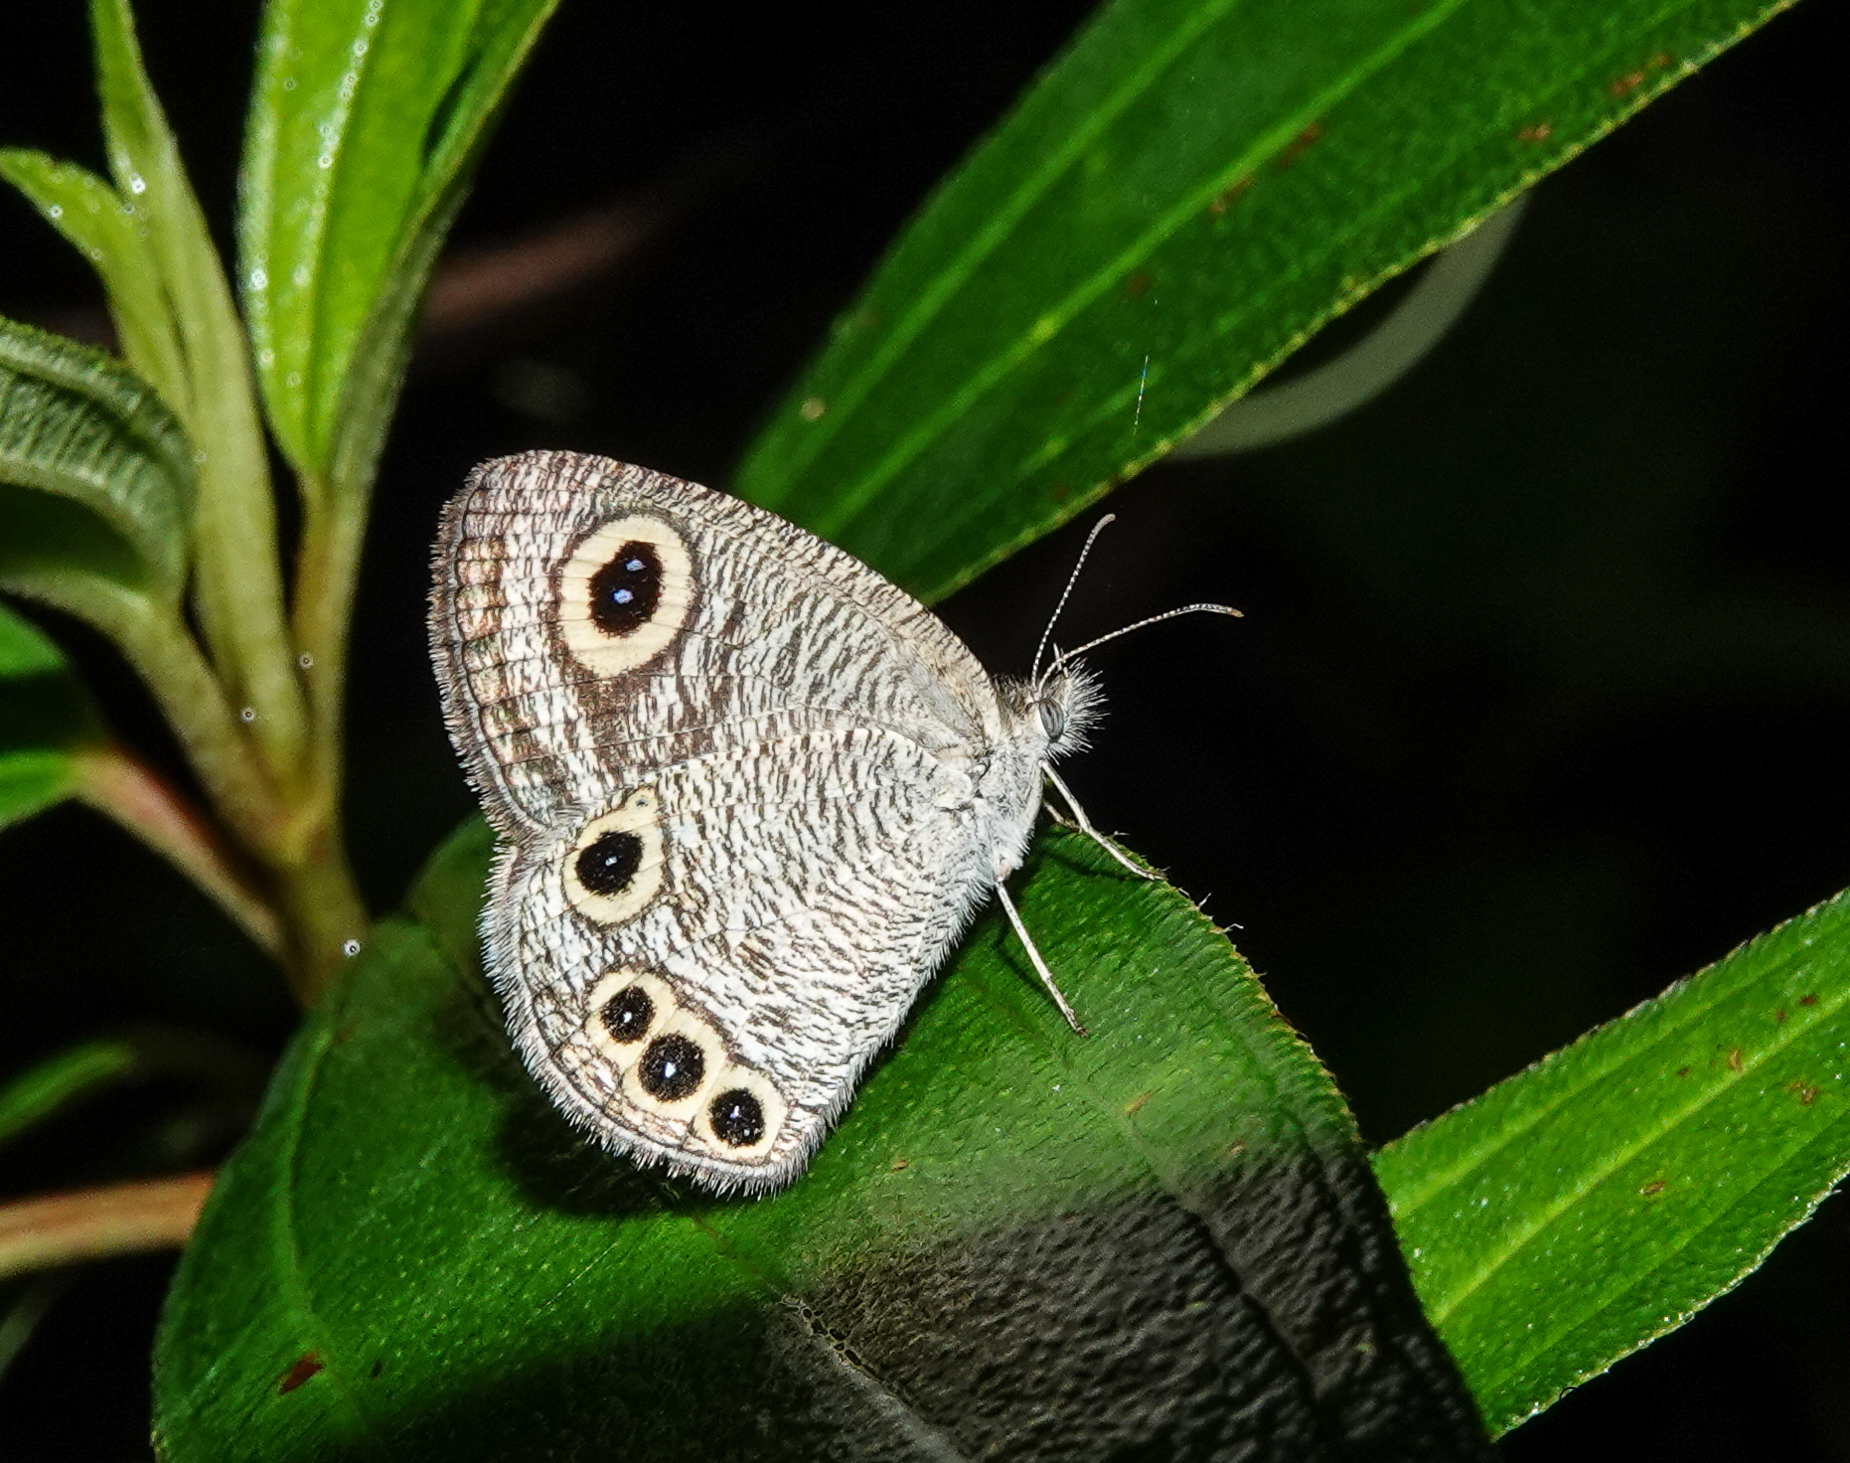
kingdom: Animalia
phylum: Arthropoda
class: Insecta
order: Lepidoptera
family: Nymphalidae
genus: Ypthima
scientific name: Ypthima huebneri
